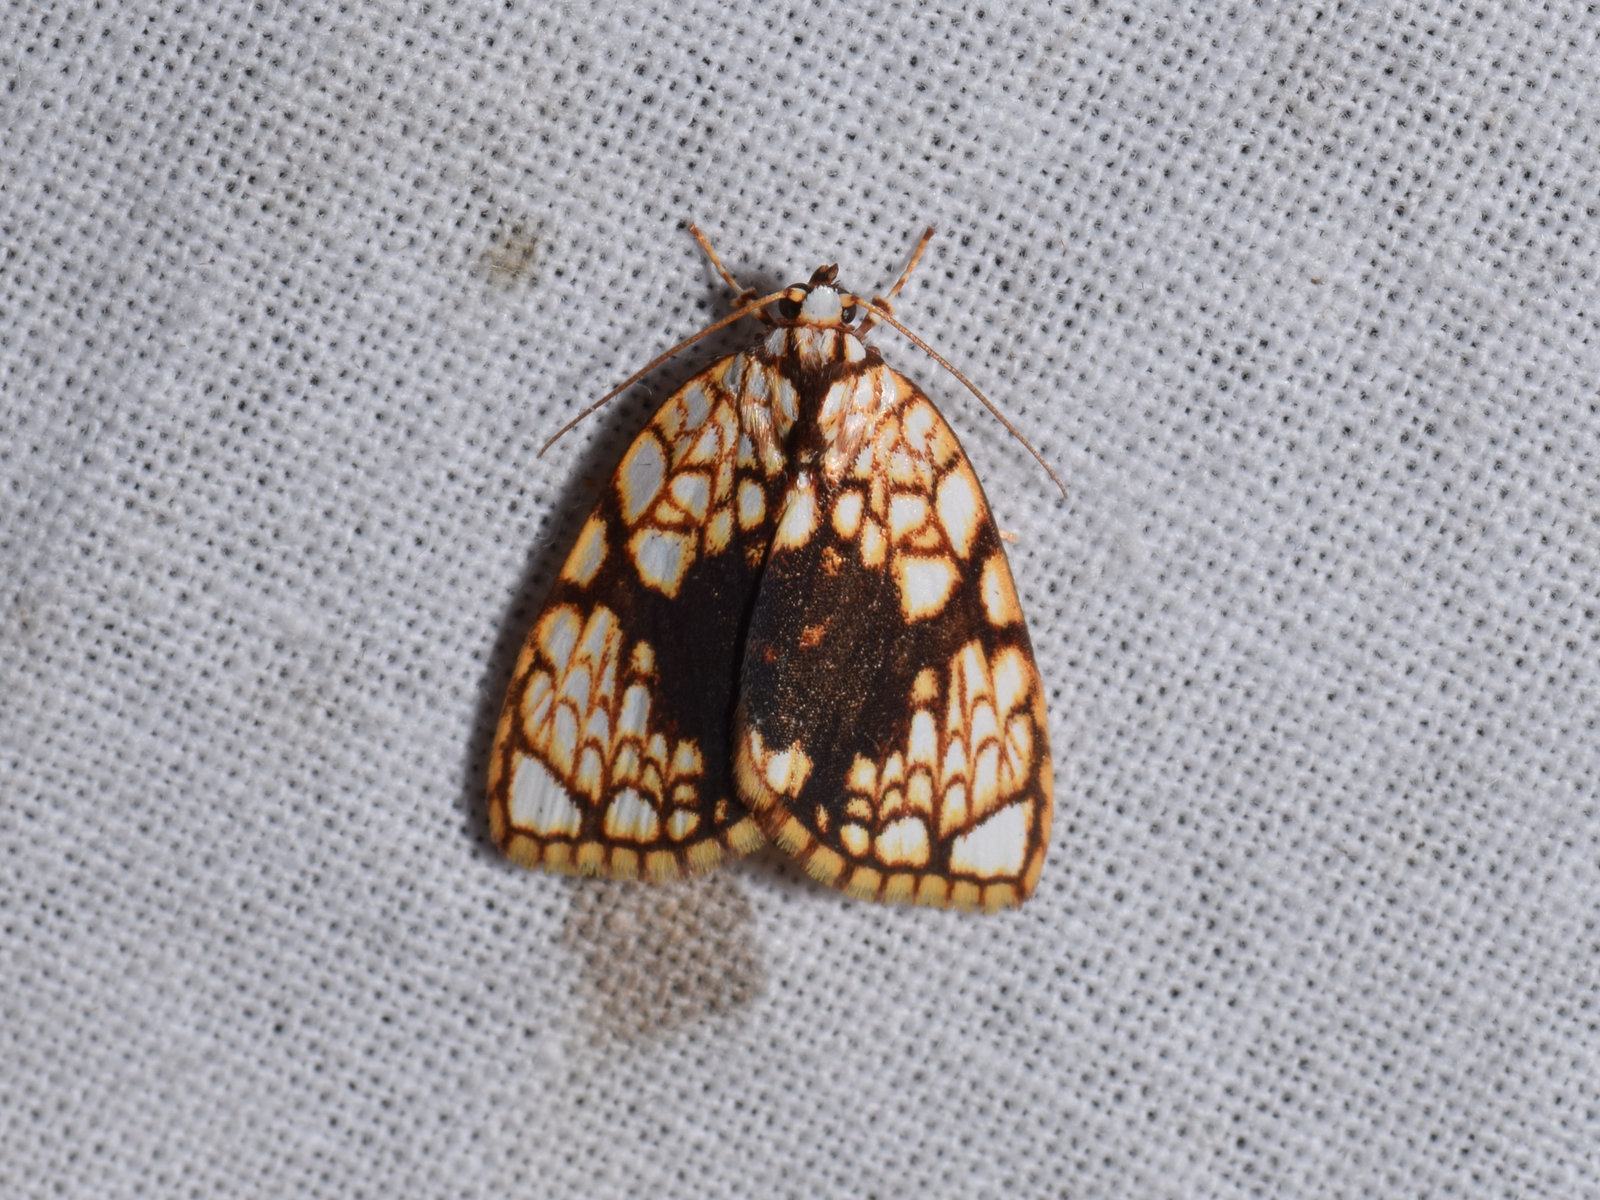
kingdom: Animalia
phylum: Arthropoda
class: Insecta
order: Lepidoptera
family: Nolidae
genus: Gabala
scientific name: Gabala roseoretis
